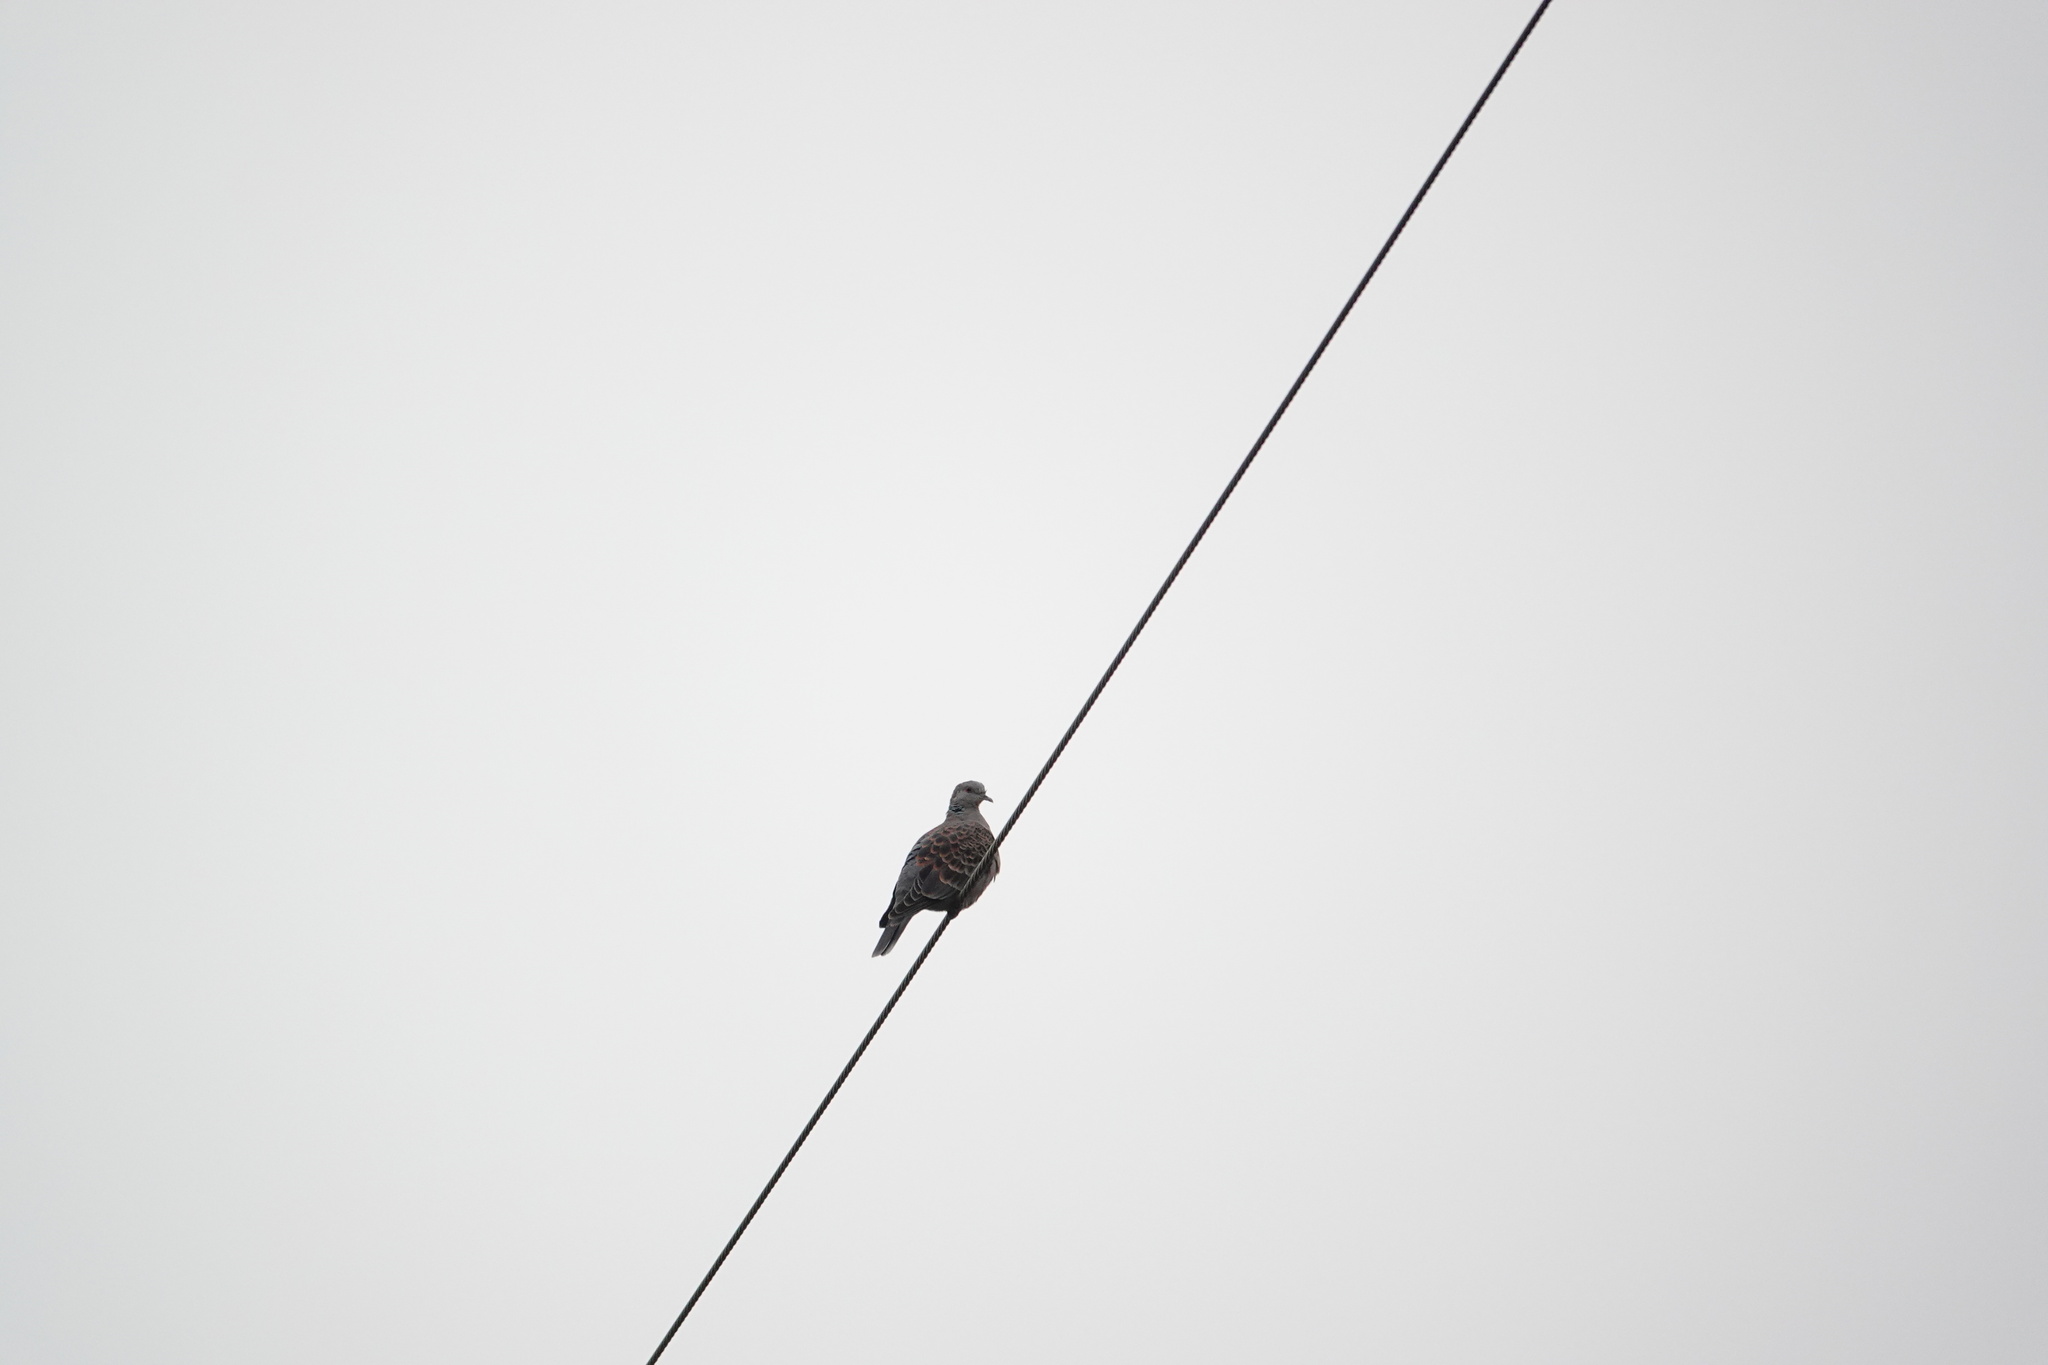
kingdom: Animalia
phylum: Chordata
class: Aves
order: Columbiformes
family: Columbidae
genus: Streptopelia
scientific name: Streptopelia orientalis
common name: Oriental turtle dove
